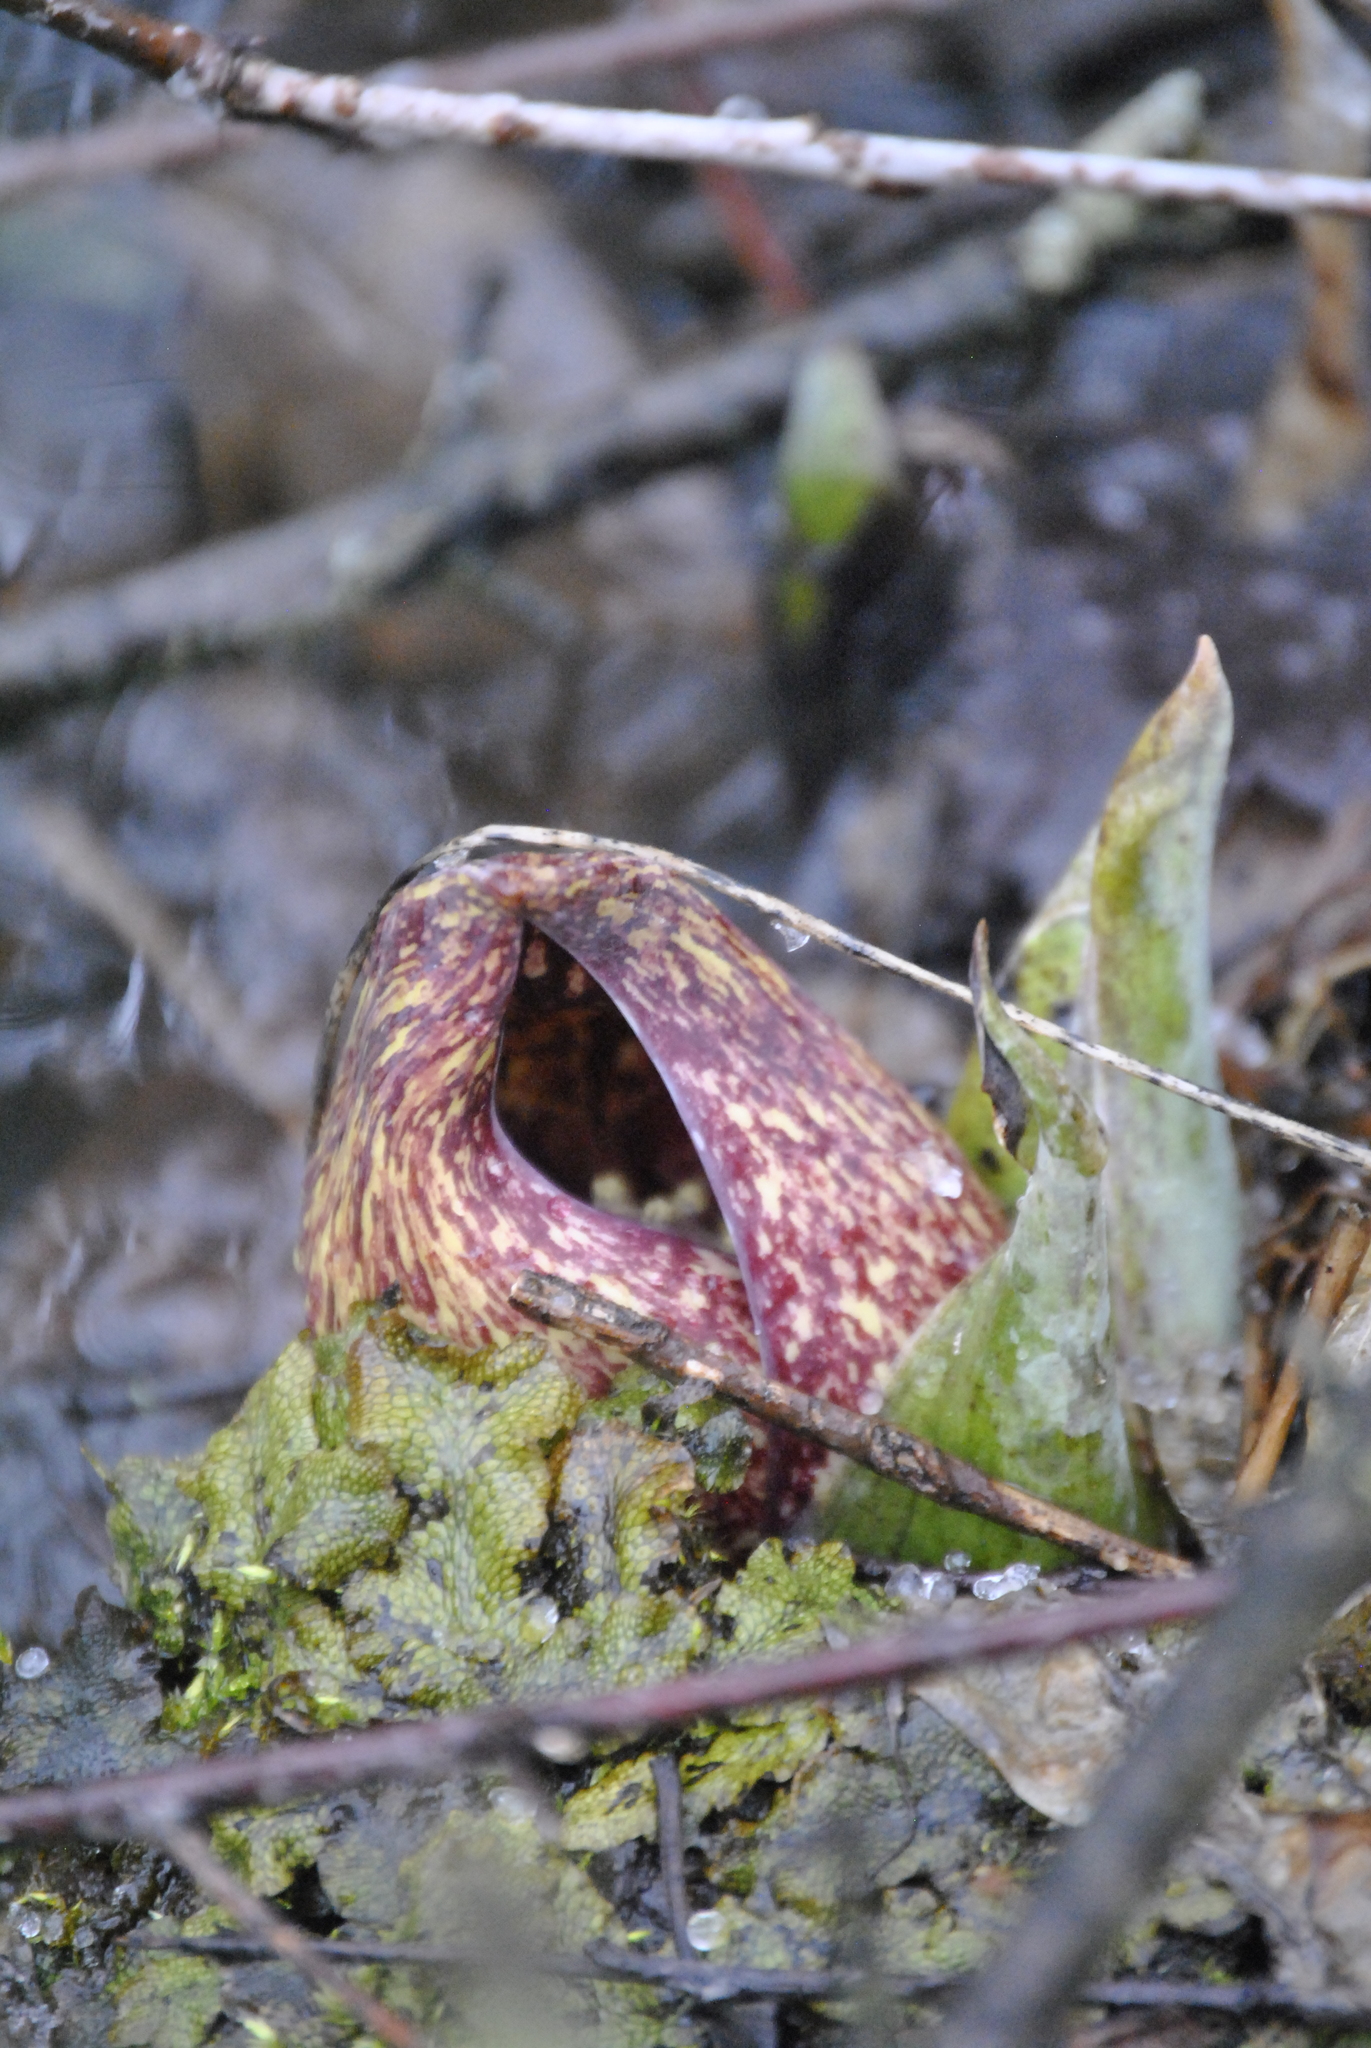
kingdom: Plantae
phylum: Tracheophyta
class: Liliopsida
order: Alismatales
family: Araceae
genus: Symplocarpus
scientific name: Symplocarpus foetidus
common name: Eastern skunk cabbage
